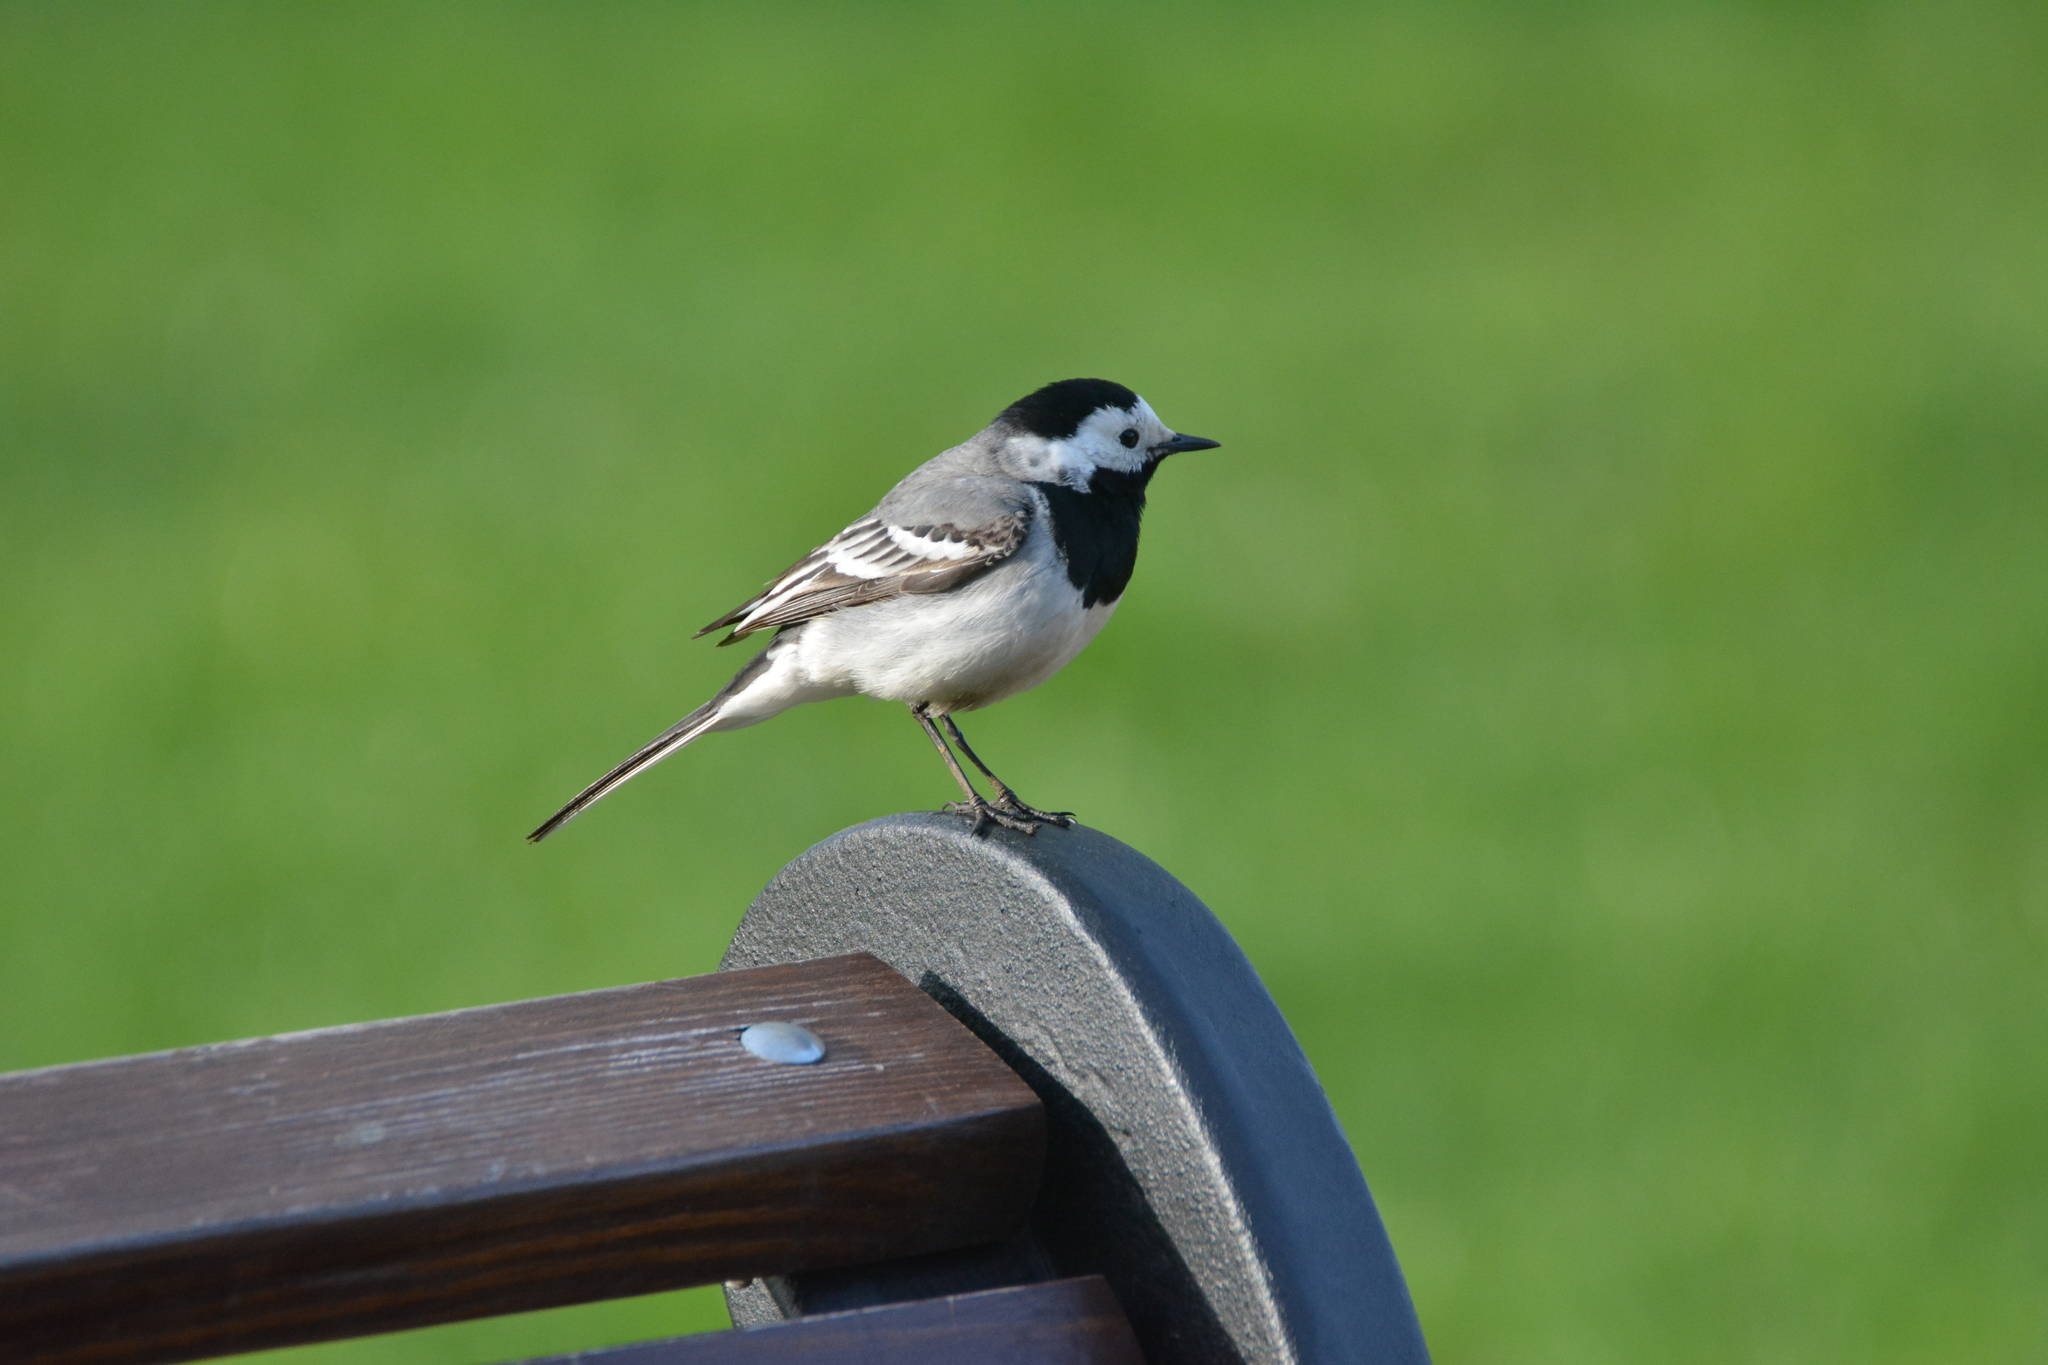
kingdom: Animalia
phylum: Chordata
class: Aves
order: Passeriformes
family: Motacillidae
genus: Motacilla
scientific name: Motacilla alba
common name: White wagtail
